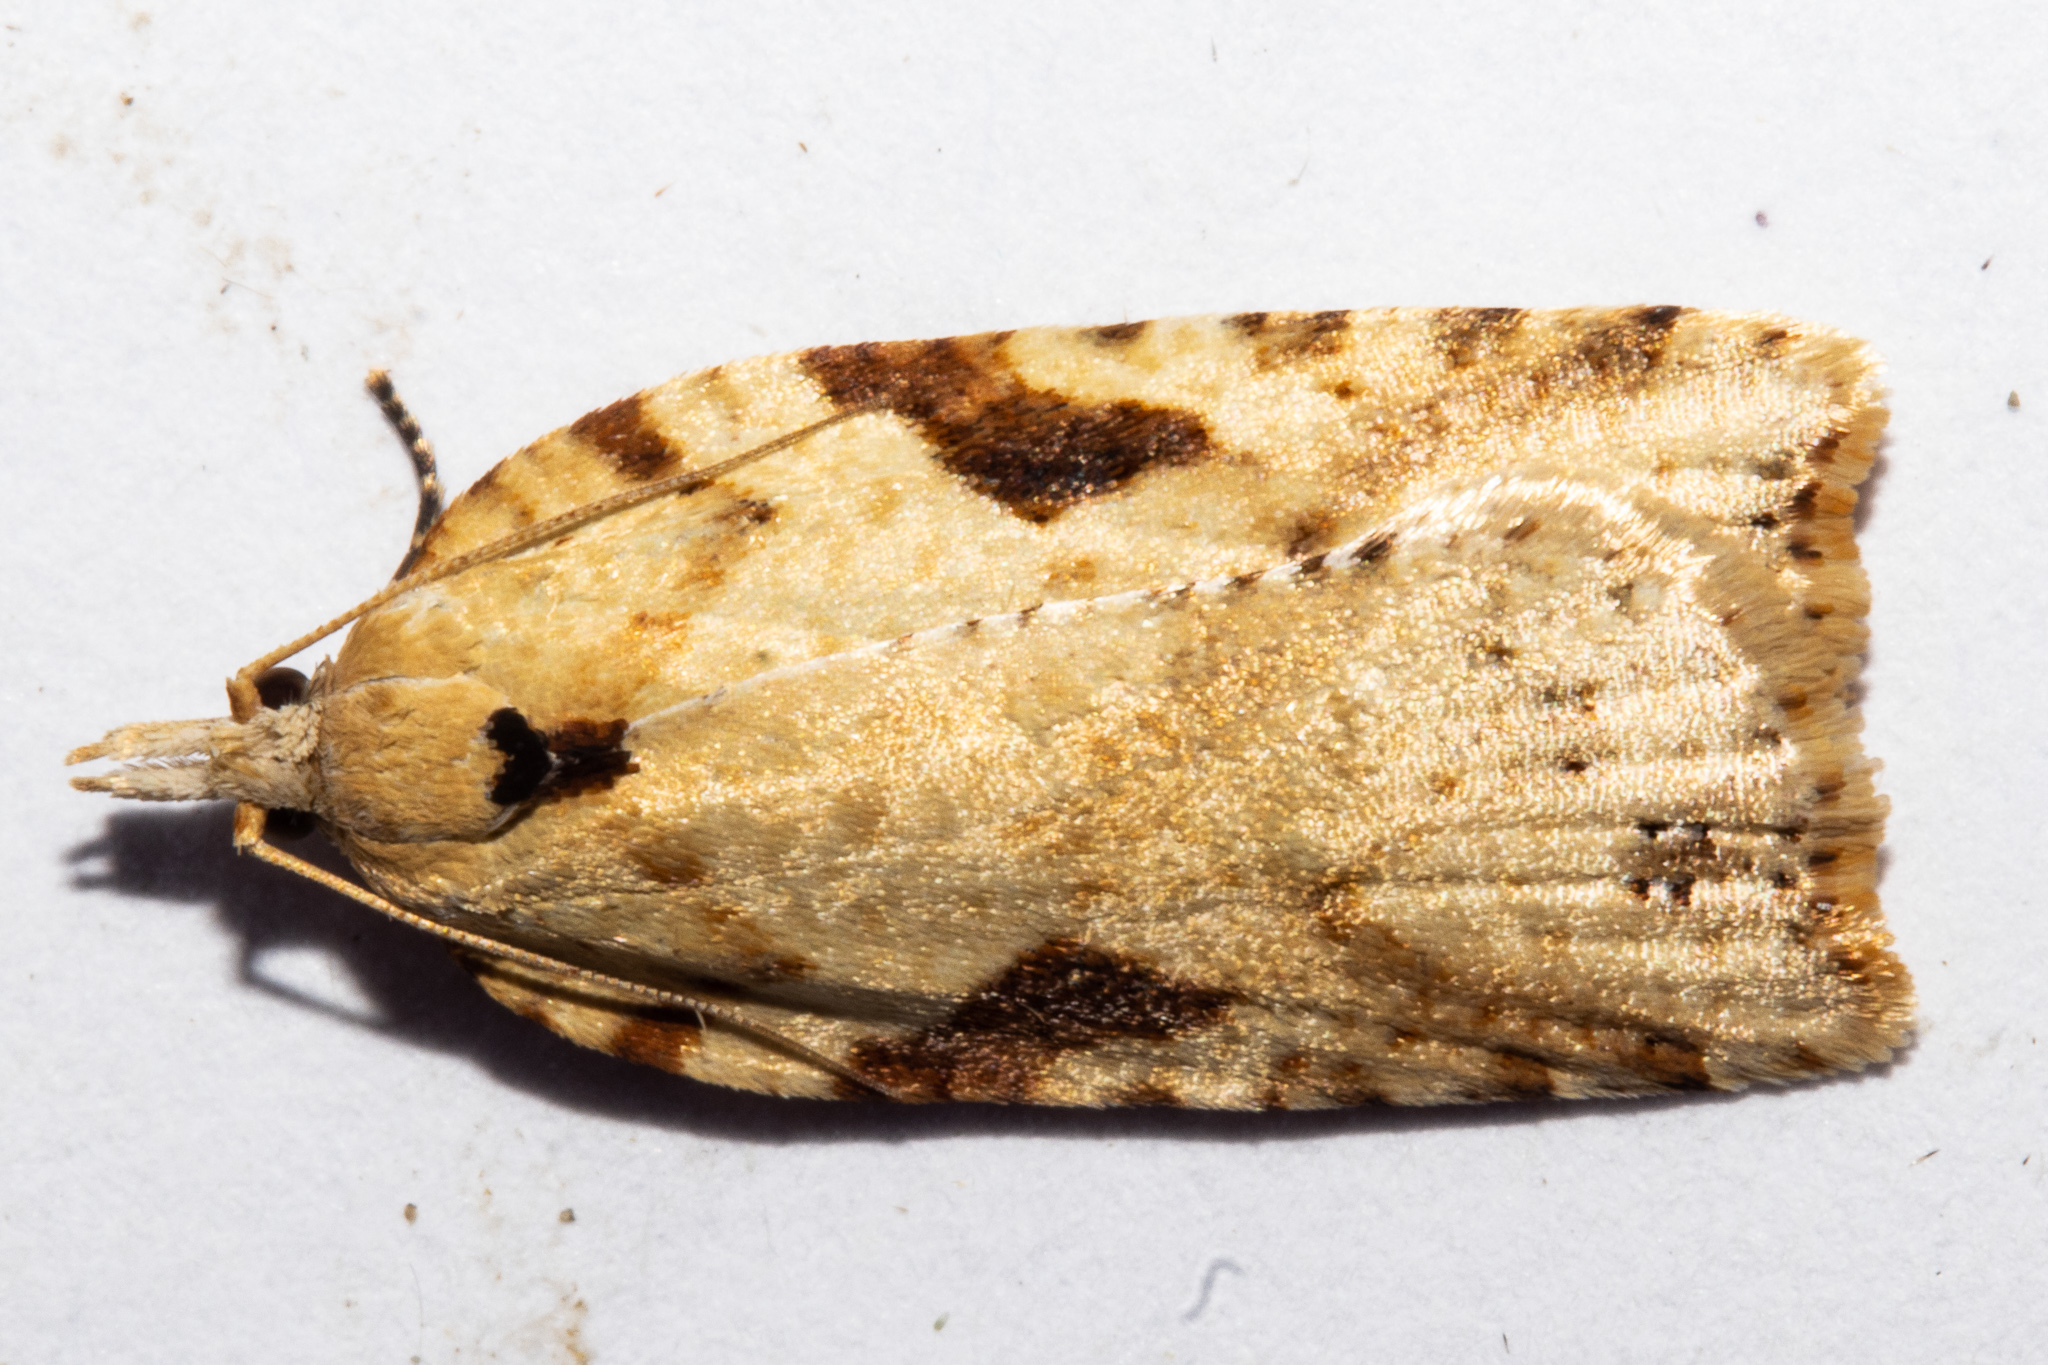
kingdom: Animalia
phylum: Arthropoda
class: Insecta
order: Lepidoptera
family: Tortricidae
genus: Leucotenes
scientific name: Leucotenes coprosmae
